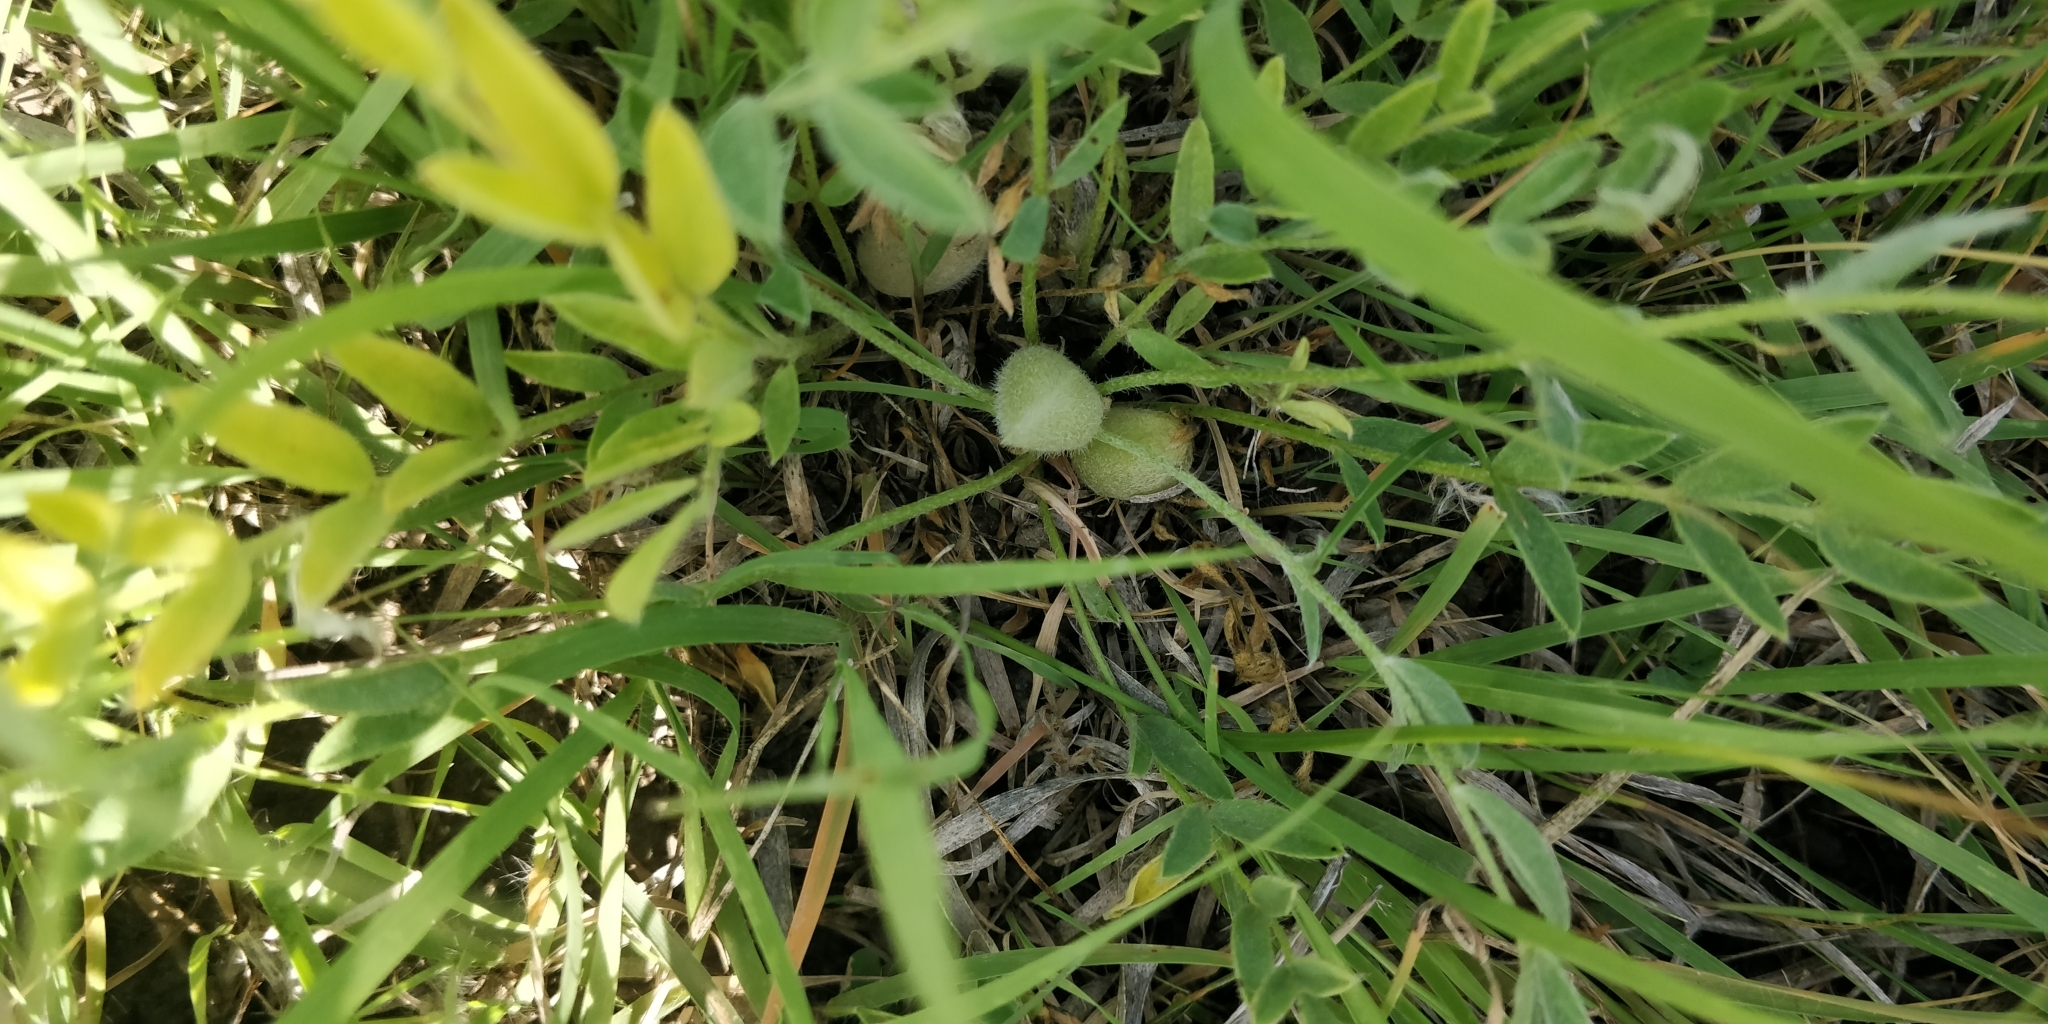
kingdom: Plantae
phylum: Tracheophyta
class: Magnoliopsida
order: Fabales
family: Fabaceae
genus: Astragalus
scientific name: Astragalus lotiflorus
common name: Lotus milk-vetch
